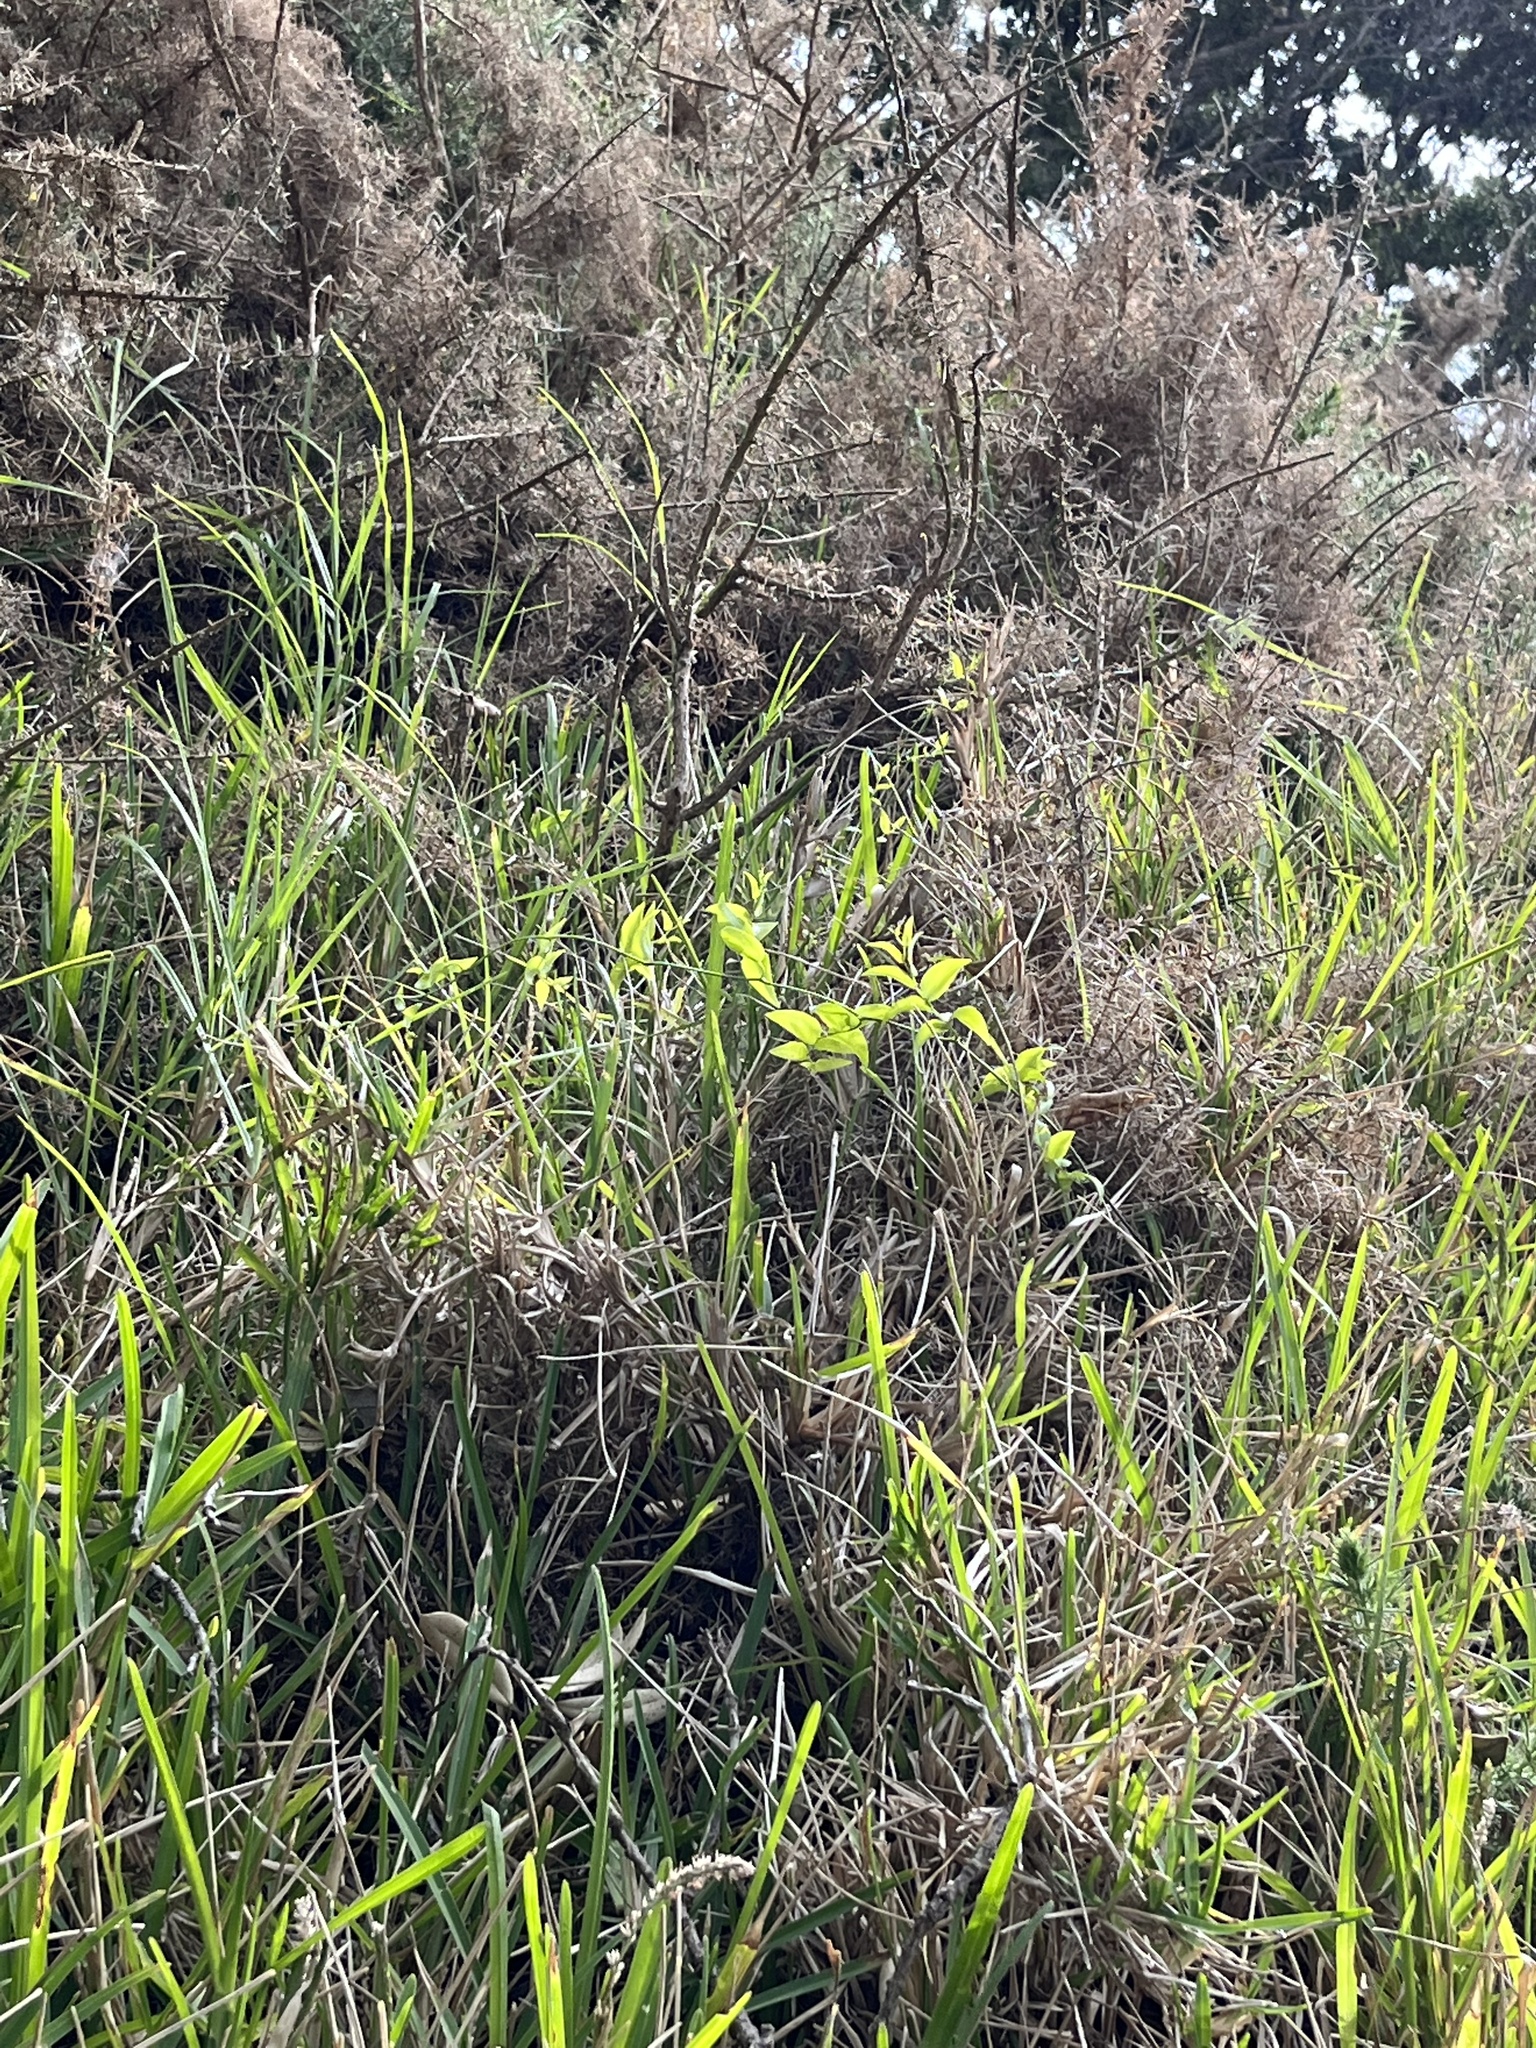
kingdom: Plantae
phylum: Tracheophyta
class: Liliopsida
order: Asparagales
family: Asparagaceae
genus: Asparagus
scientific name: Asparagus asparagoides
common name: African asparagus fern
